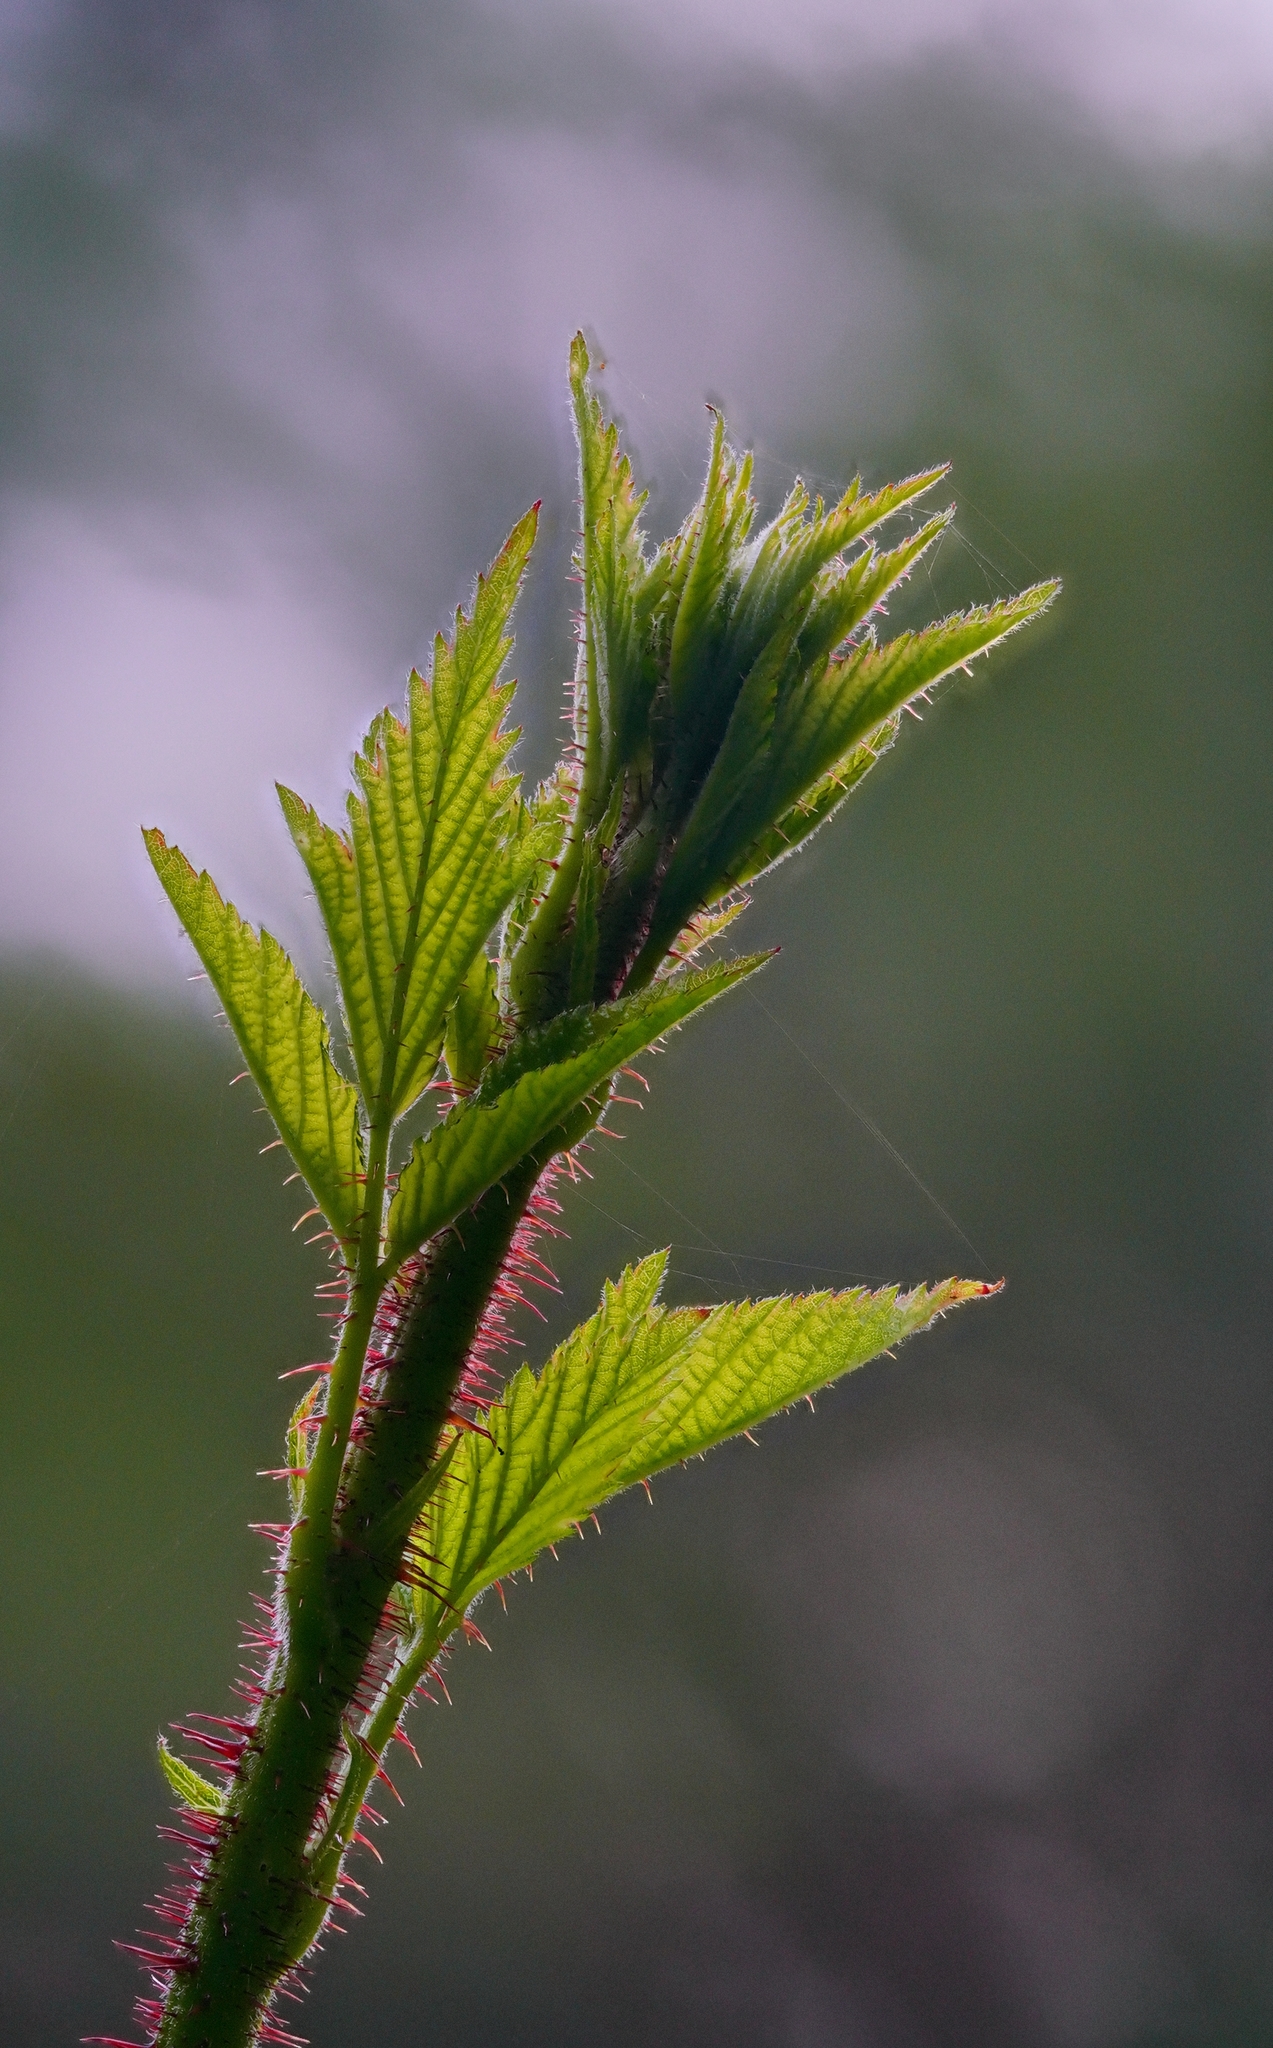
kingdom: Plantae
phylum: Tracheophyta
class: Magnoliopsida
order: Rosales
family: Rosaceae
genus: Rubus
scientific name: Rubus ursinus
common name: Pacific blackberry
